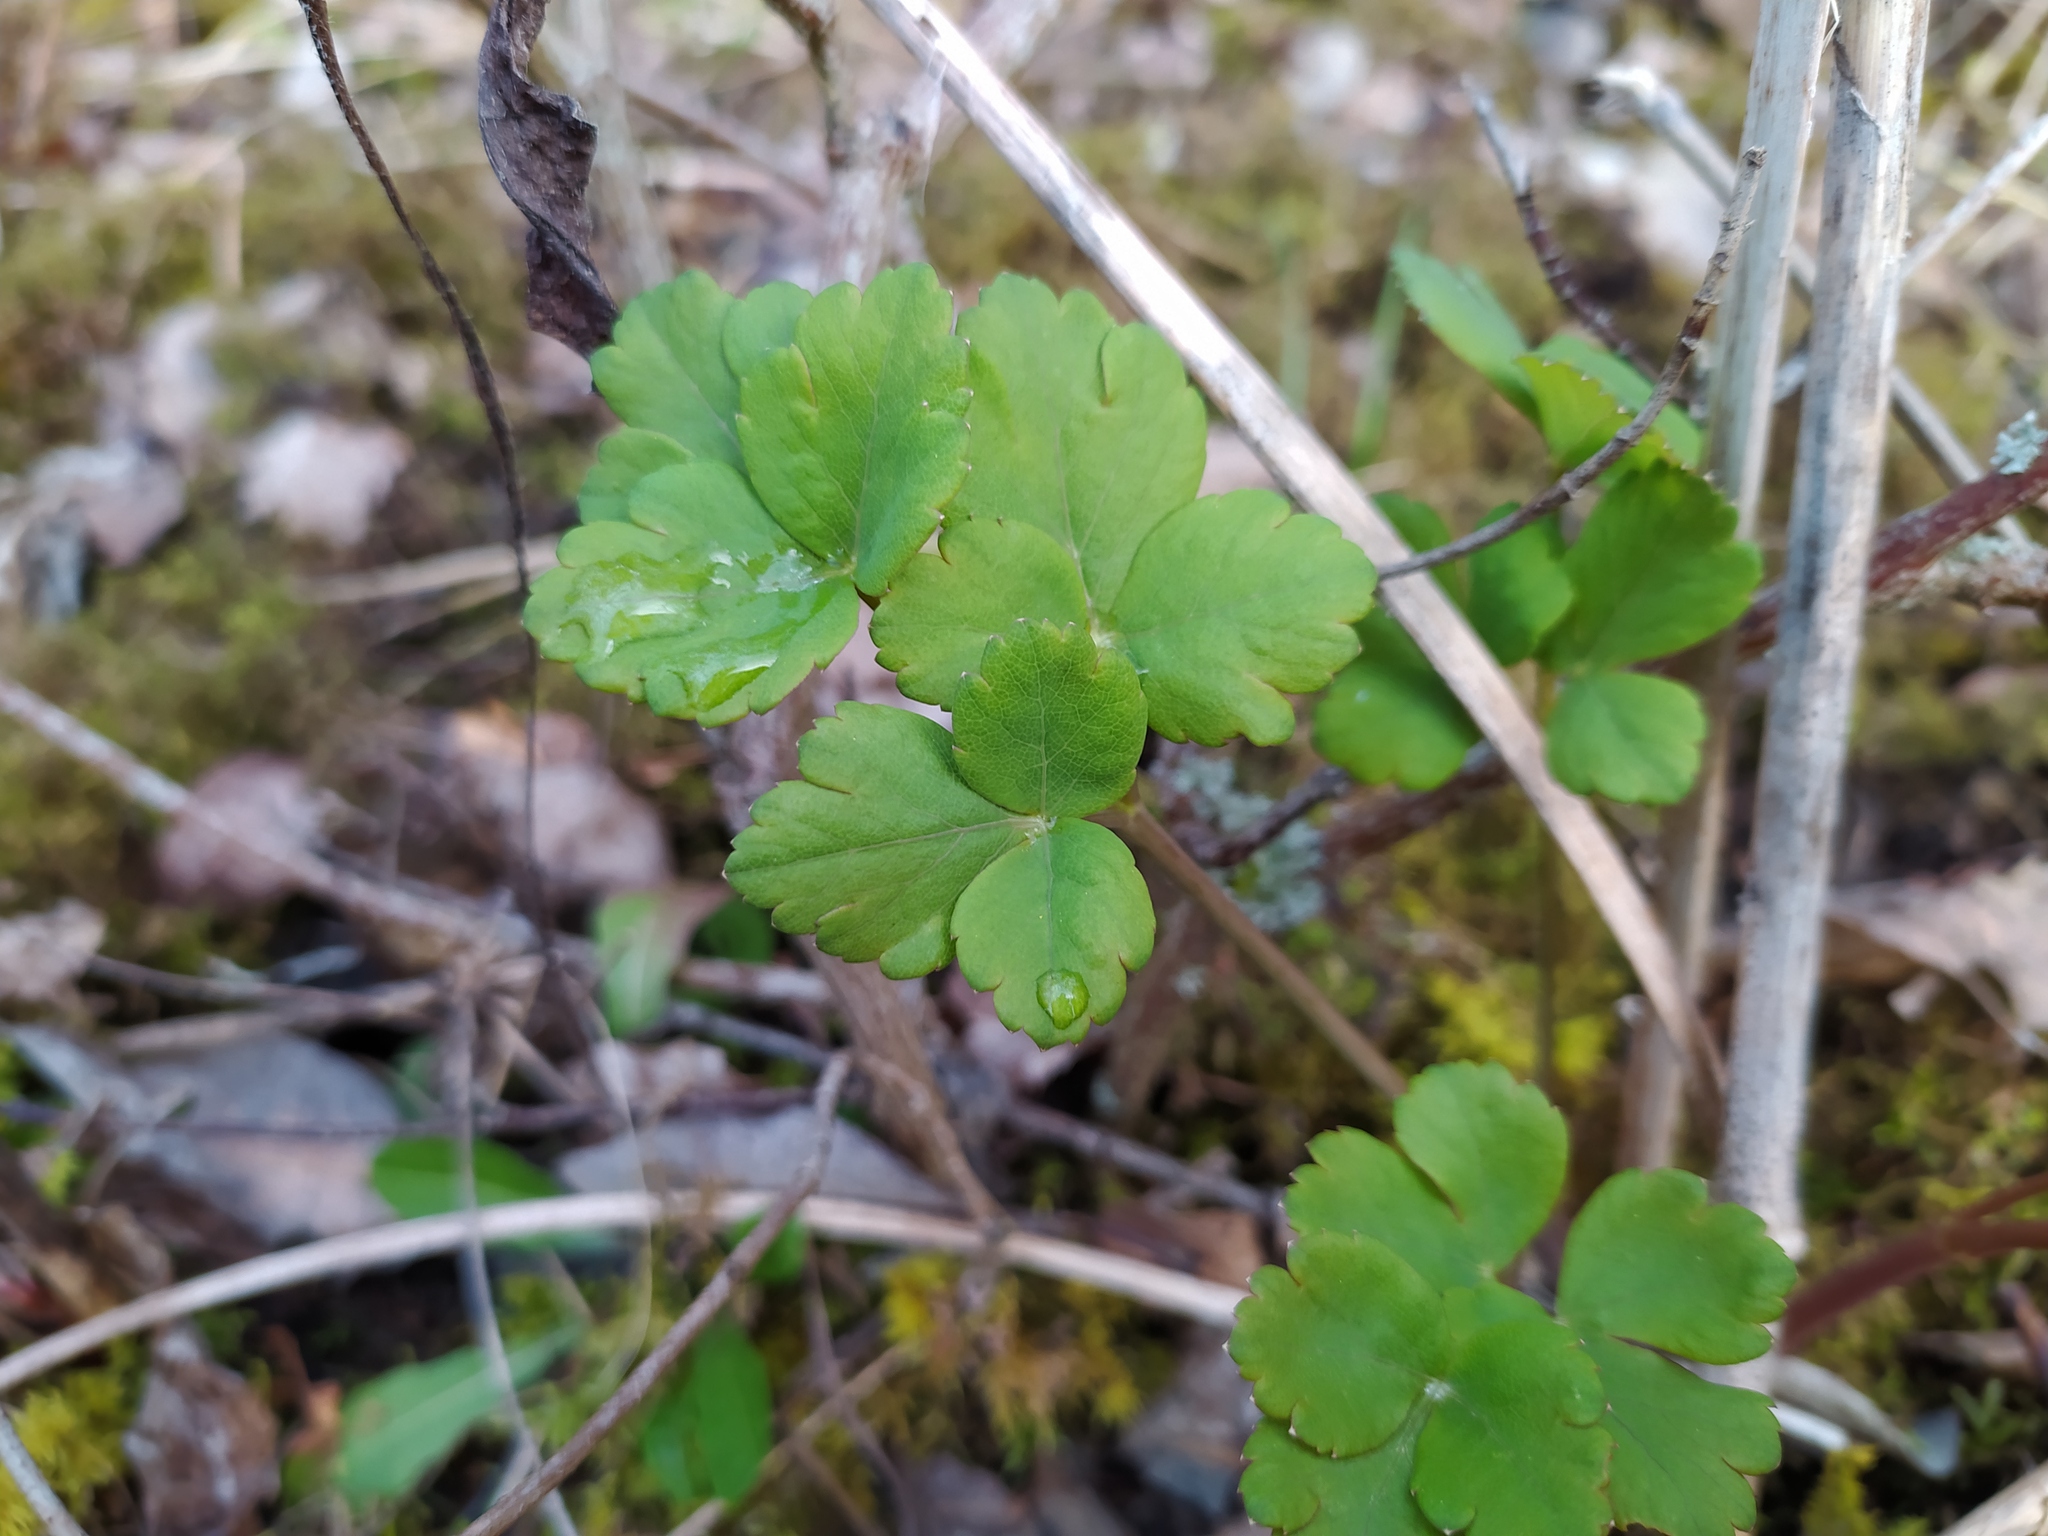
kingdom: Plantae
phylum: Tracheophyta
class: Magnoliopsida
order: Apiales
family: Apiaceae
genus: Laser
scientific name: Laser trilobum
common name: Laser
